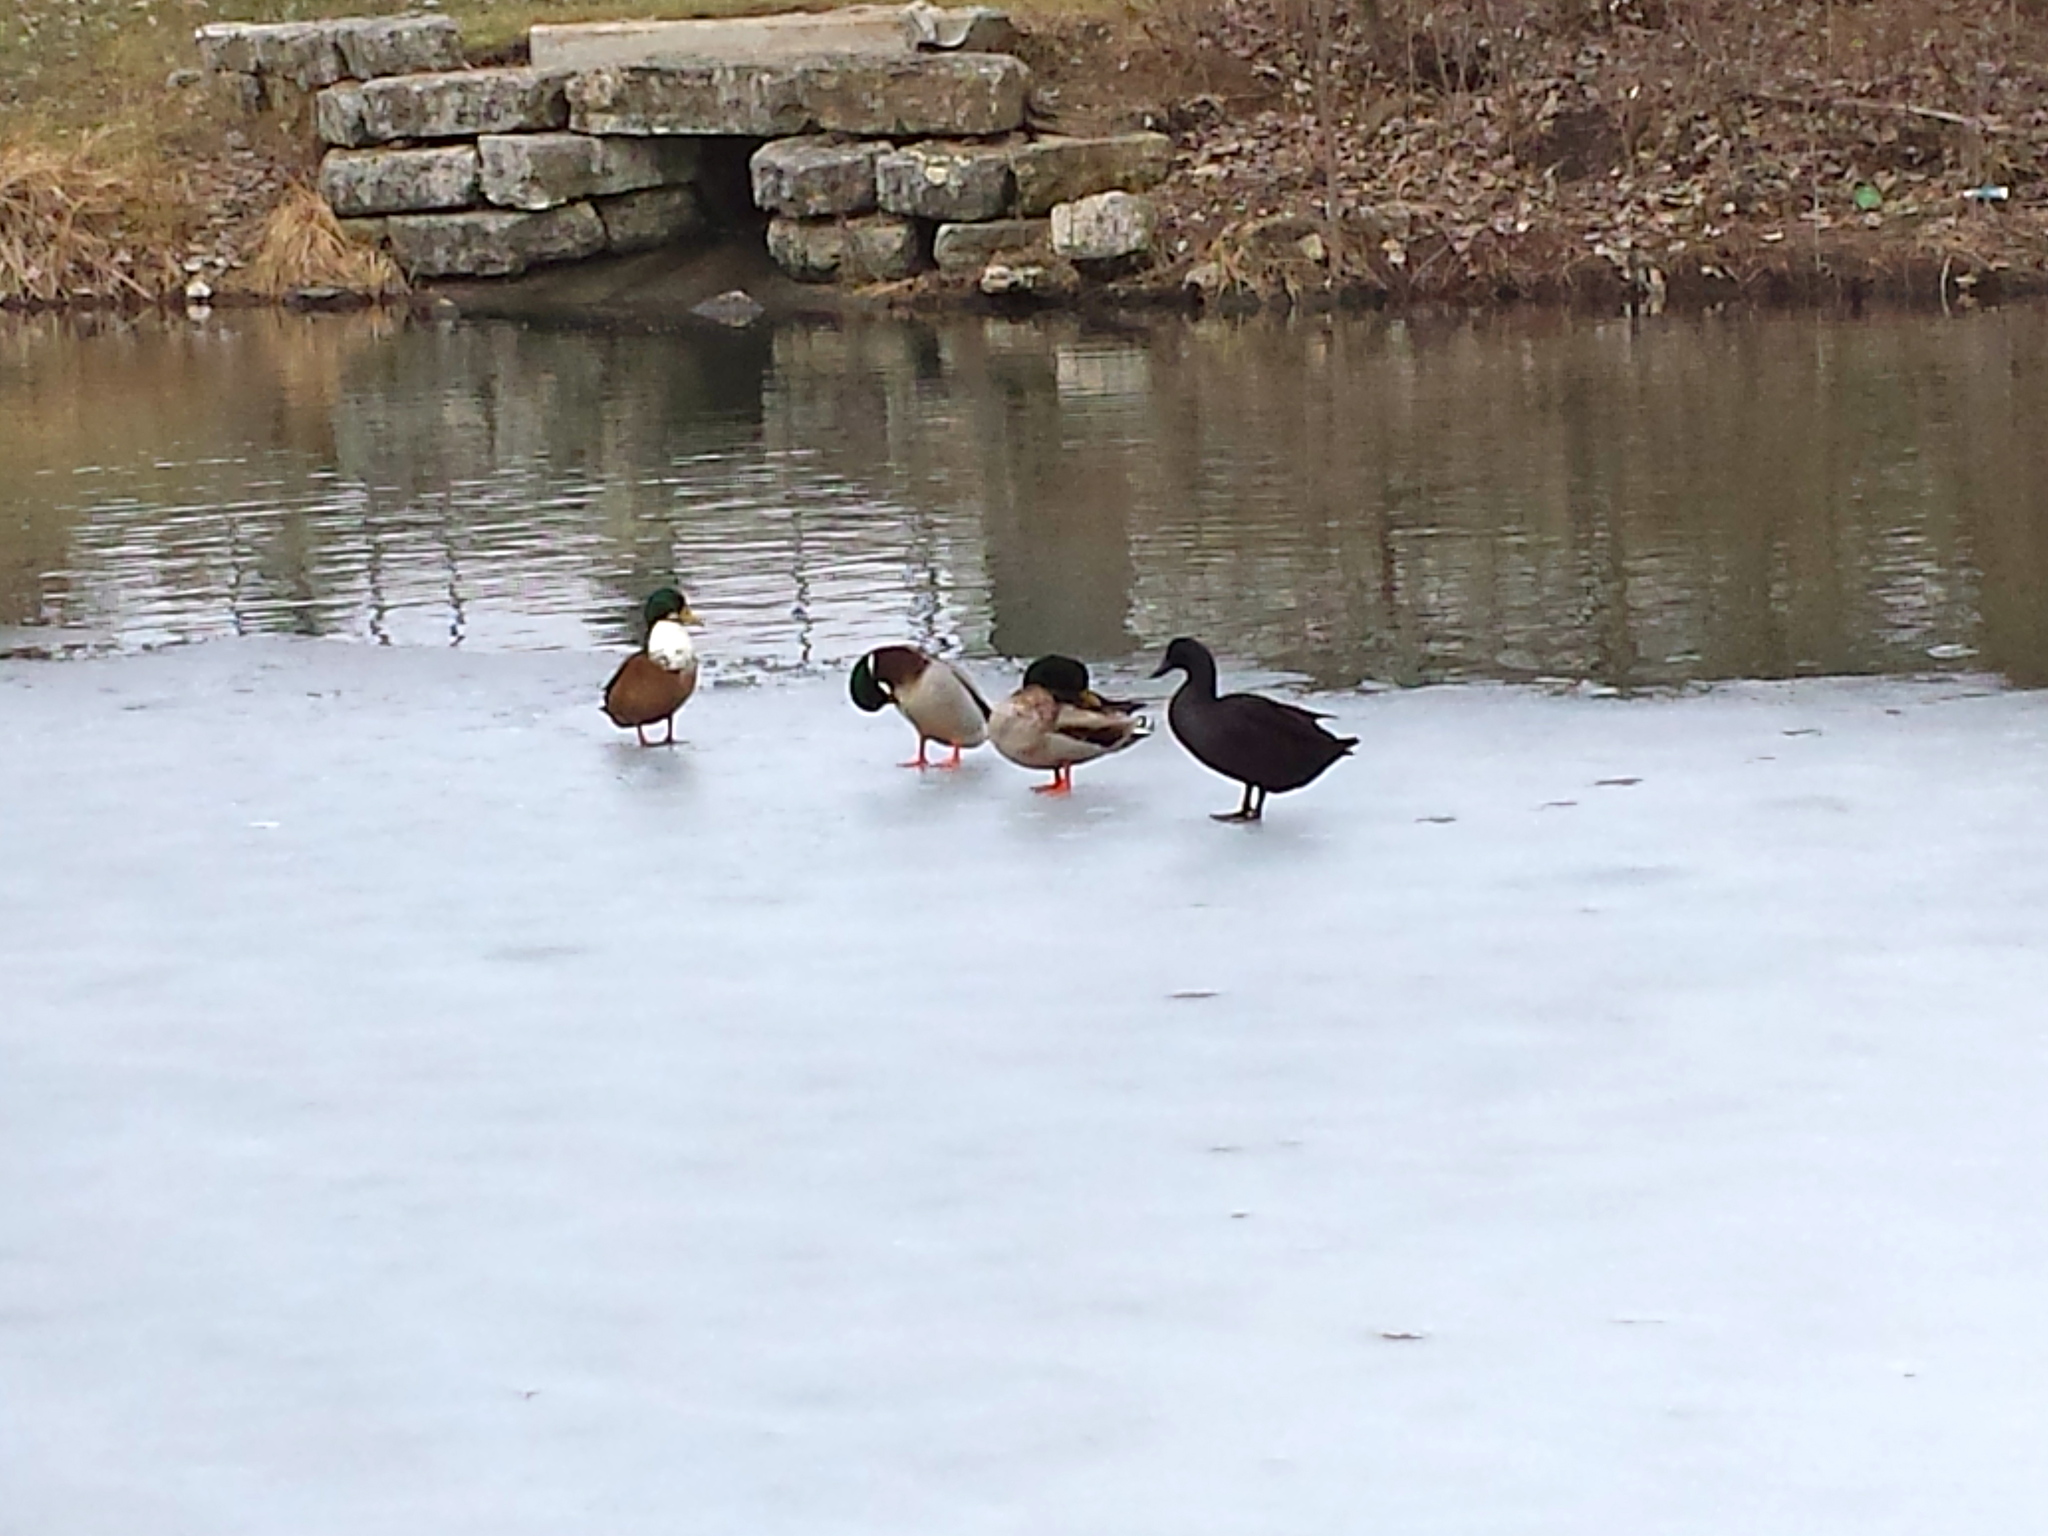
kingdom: Animalia
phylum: Chordata
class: Aves
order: Anseriformes
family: Anatidae
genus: Anas
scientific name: Anas platyrhynchos
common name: Mallard
